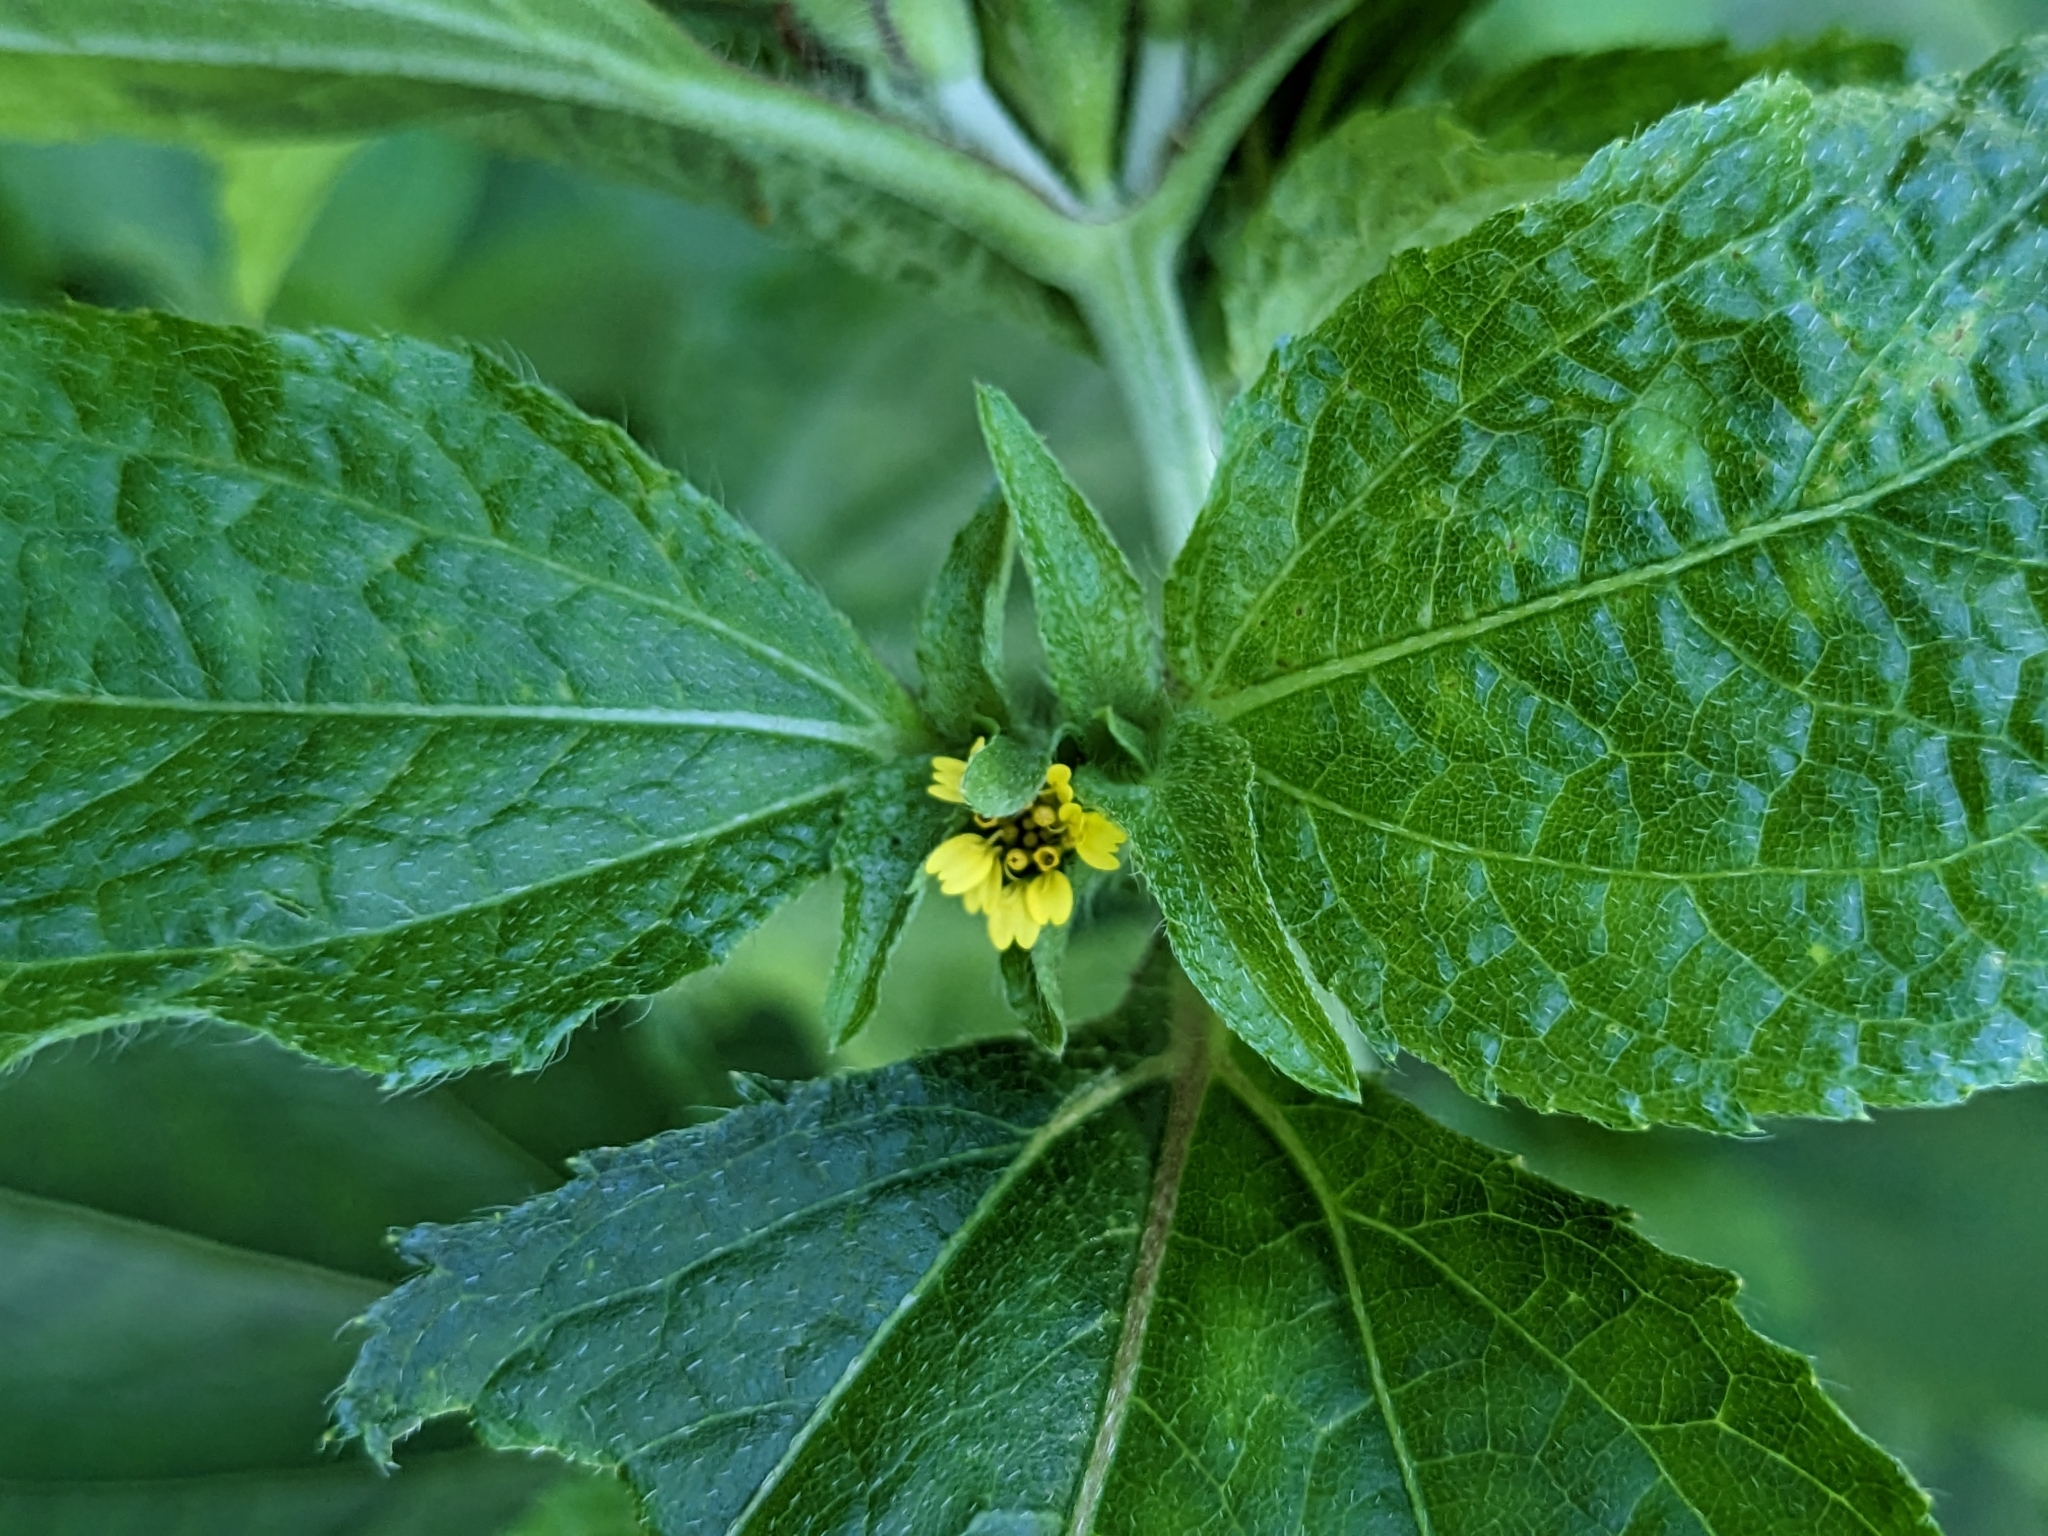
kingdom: Plantae
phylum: Tracheophyta
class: Magnoliopsida
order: Asterales
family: Asteraceae
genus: Synedrella
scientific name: Synedrella nodiflora
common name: Nodeweed
